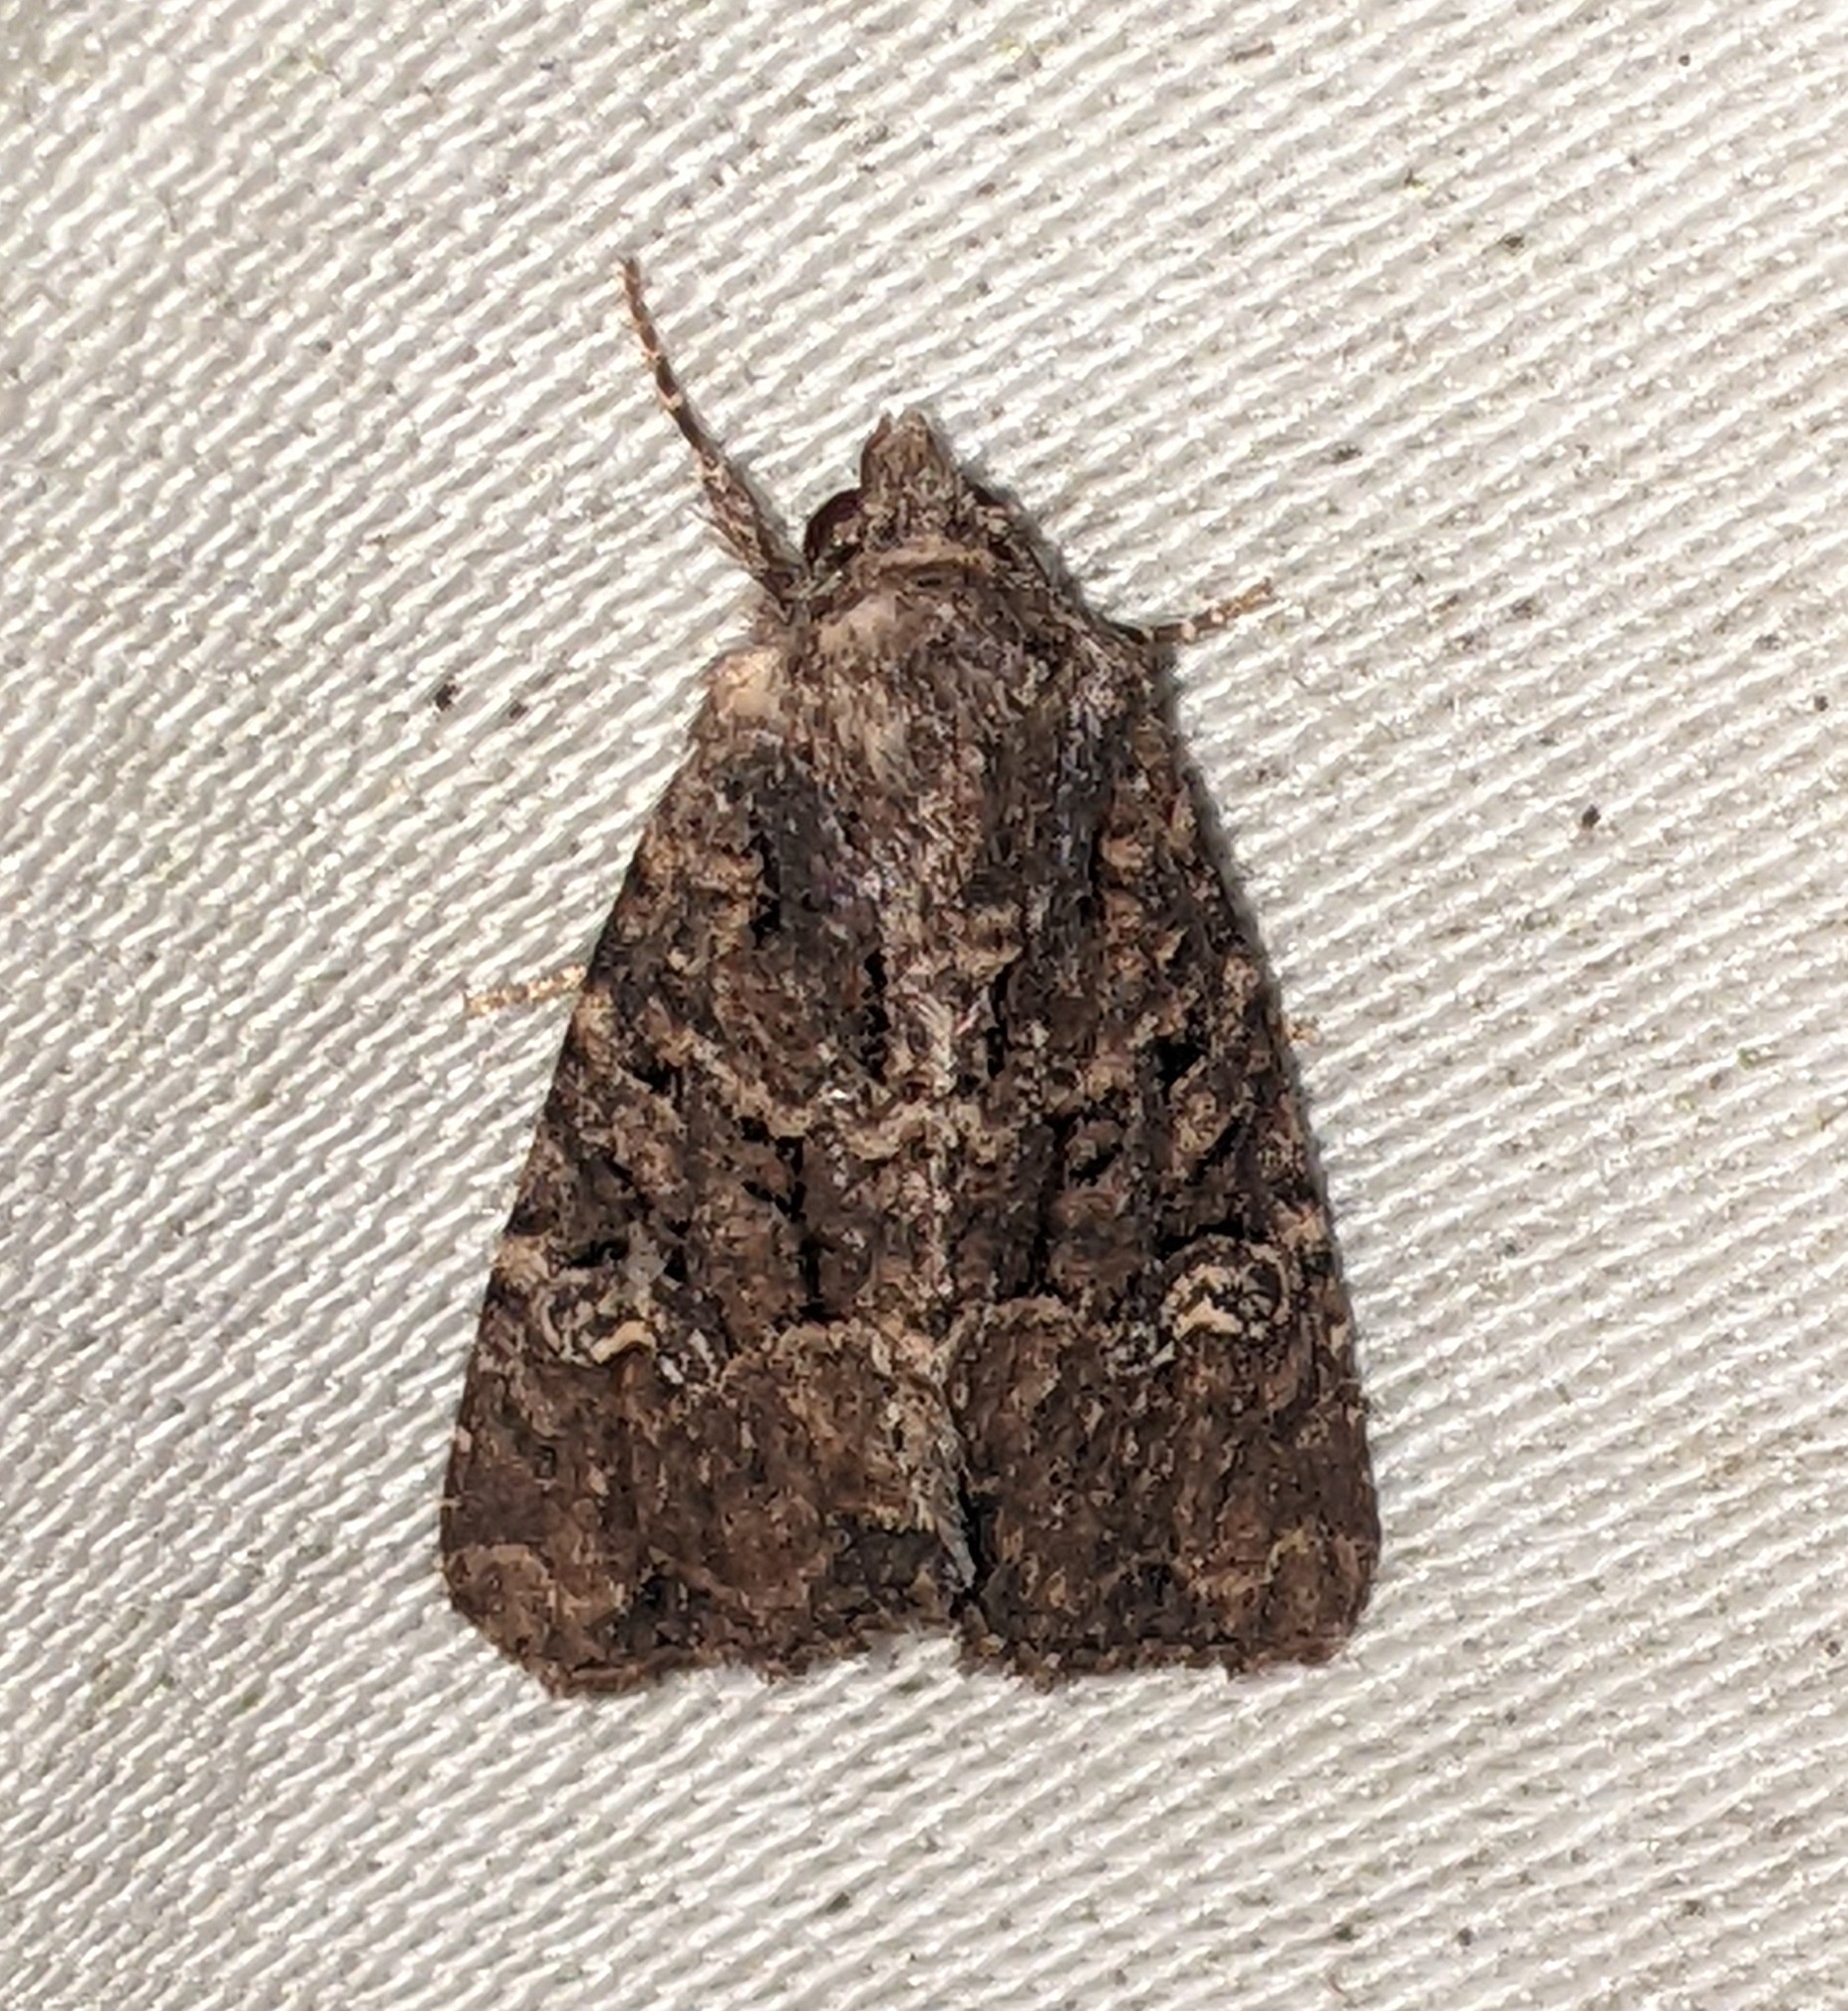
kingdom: Animalia
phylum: Arthropoda
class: Insecta
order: Lepidoptera
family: Noctuidae
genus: Mesapamea
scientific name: Mesapamea secalis
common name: Common rustic
